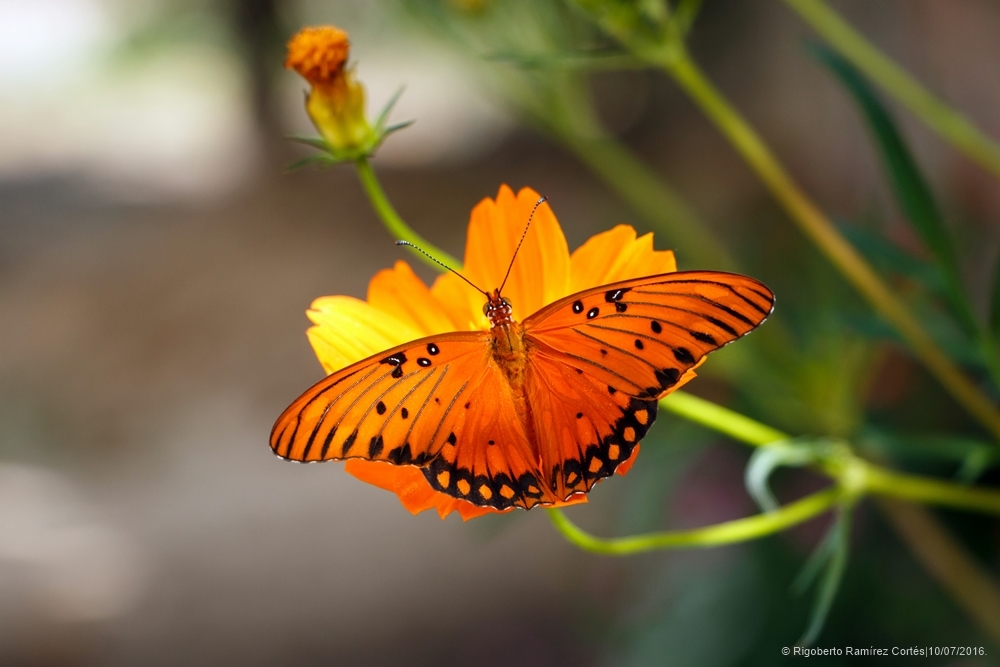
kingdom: Animalia
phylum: Arthropoda
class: Insecta
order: Lepidoptera
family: Nymphalidae
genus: Dione
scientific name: Dione vanillae
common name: Gulf fritillary
